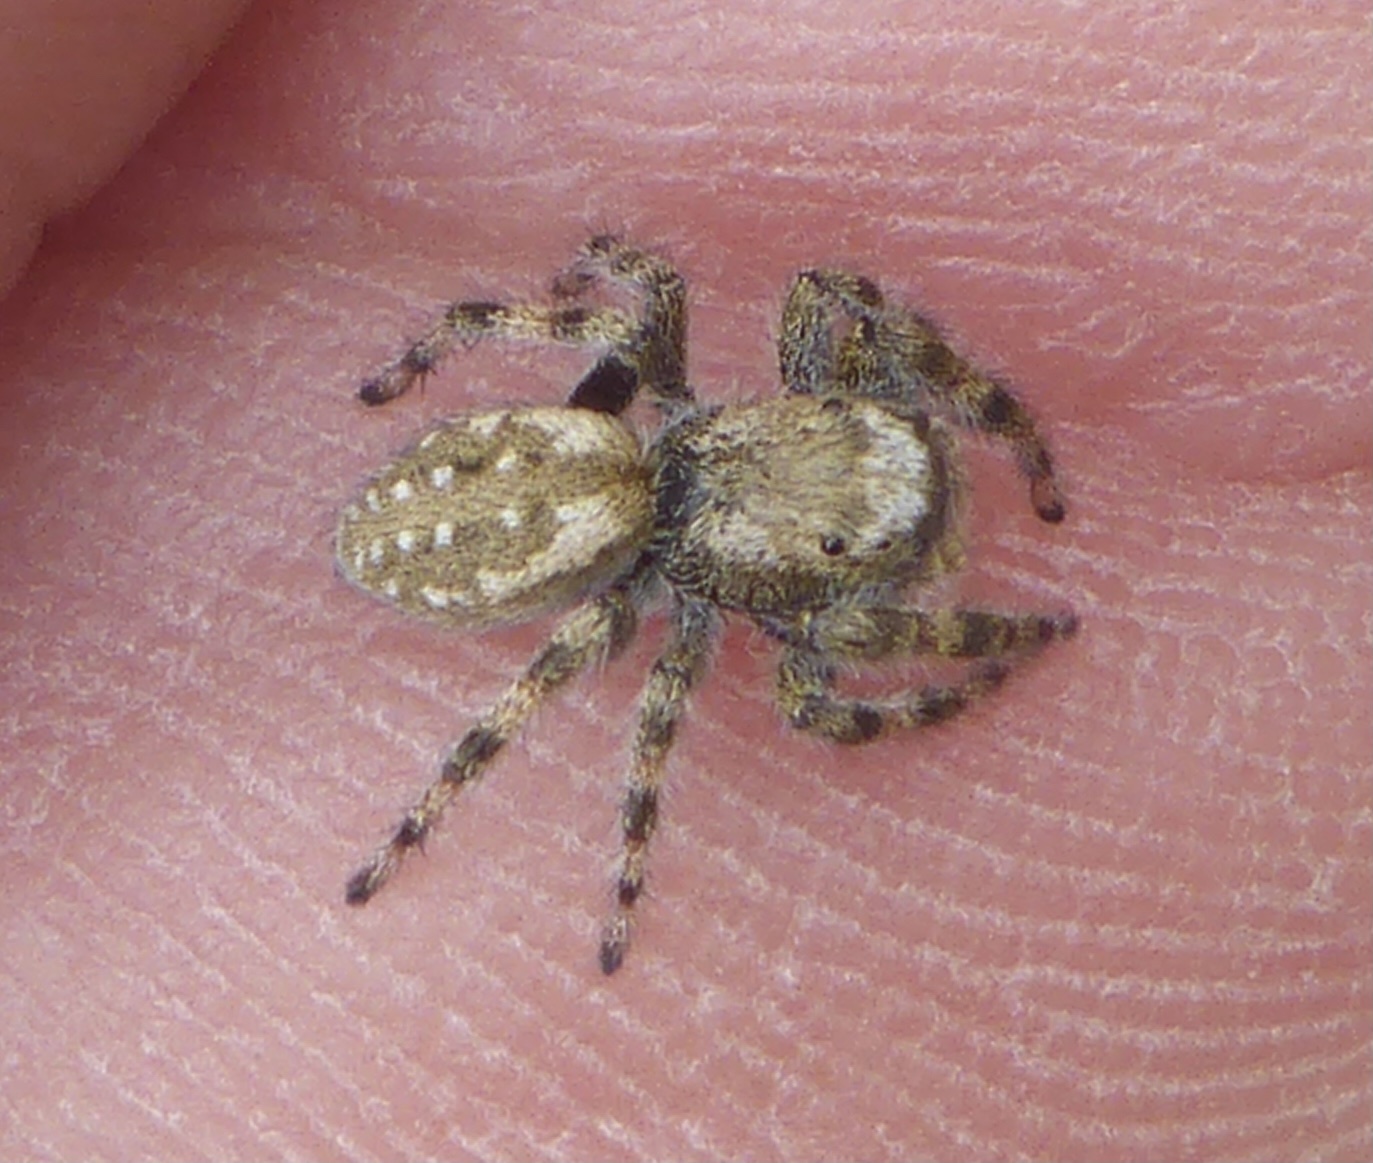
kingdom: Animalia
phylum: Arthropoda
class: Arachnida
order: Araneae
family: Salticidae
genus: Terralonus
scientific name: Terralonus californicus
